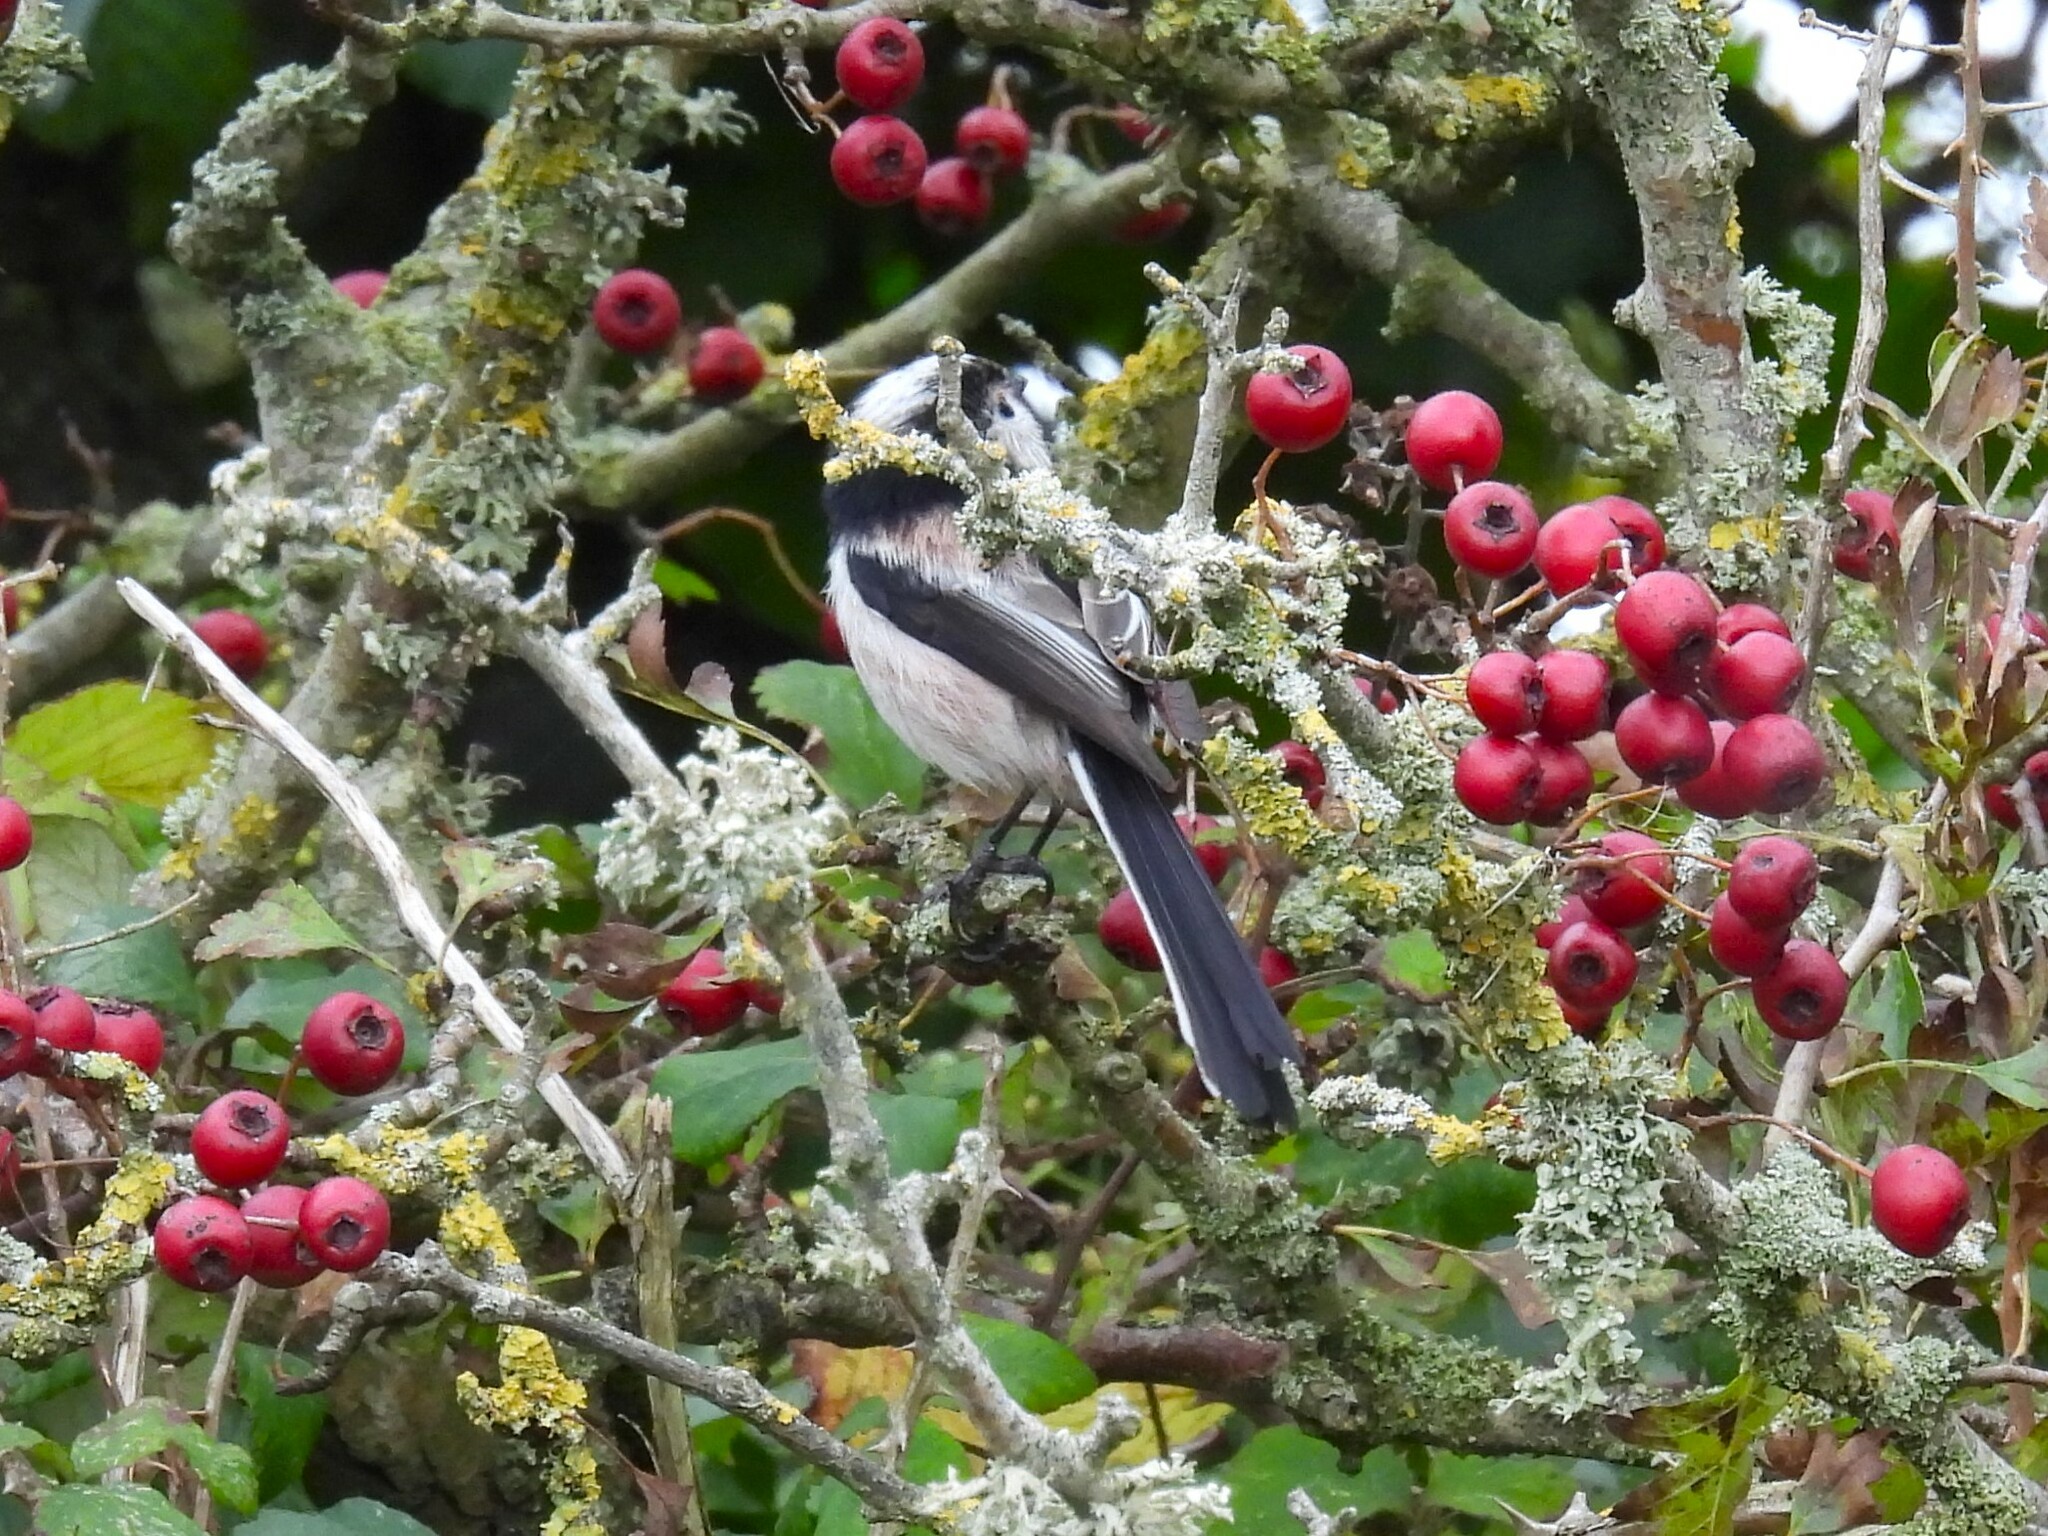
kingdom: Animalia
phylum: Chordata
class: Aves
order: Passeriformes
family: Aegithalidae
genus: Aegithalos
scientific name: Aegithalos caudatus
